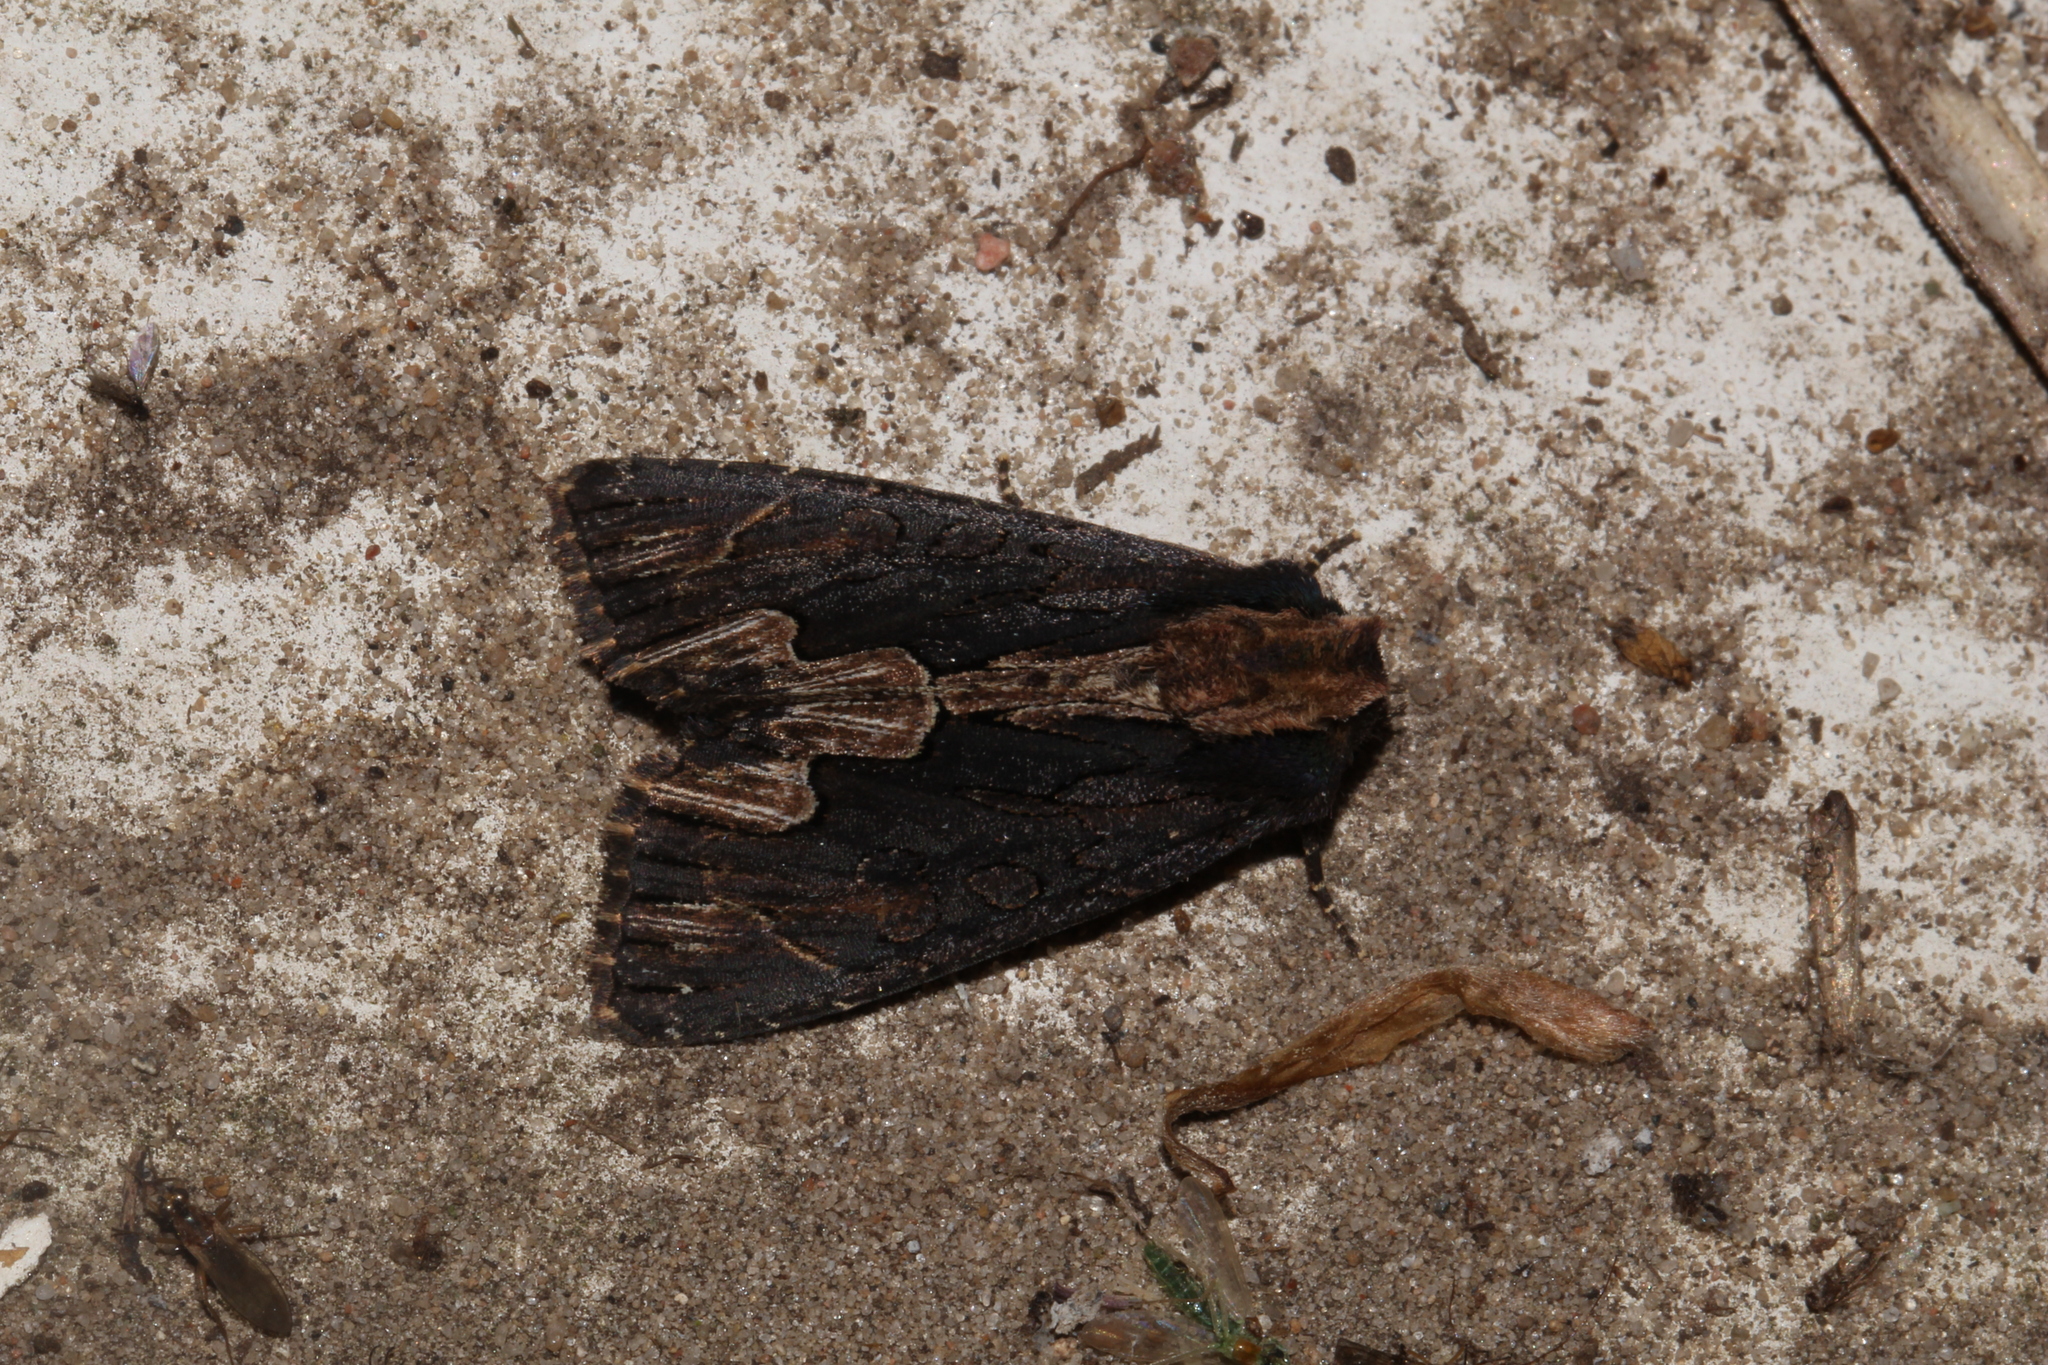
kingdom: Animalia
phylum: Arthropoda
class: Insecta
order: Lepidoptera
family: Noctuidae
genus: Dypterygia
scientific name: Dypterygia scabriuscula
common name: Bird's wing
